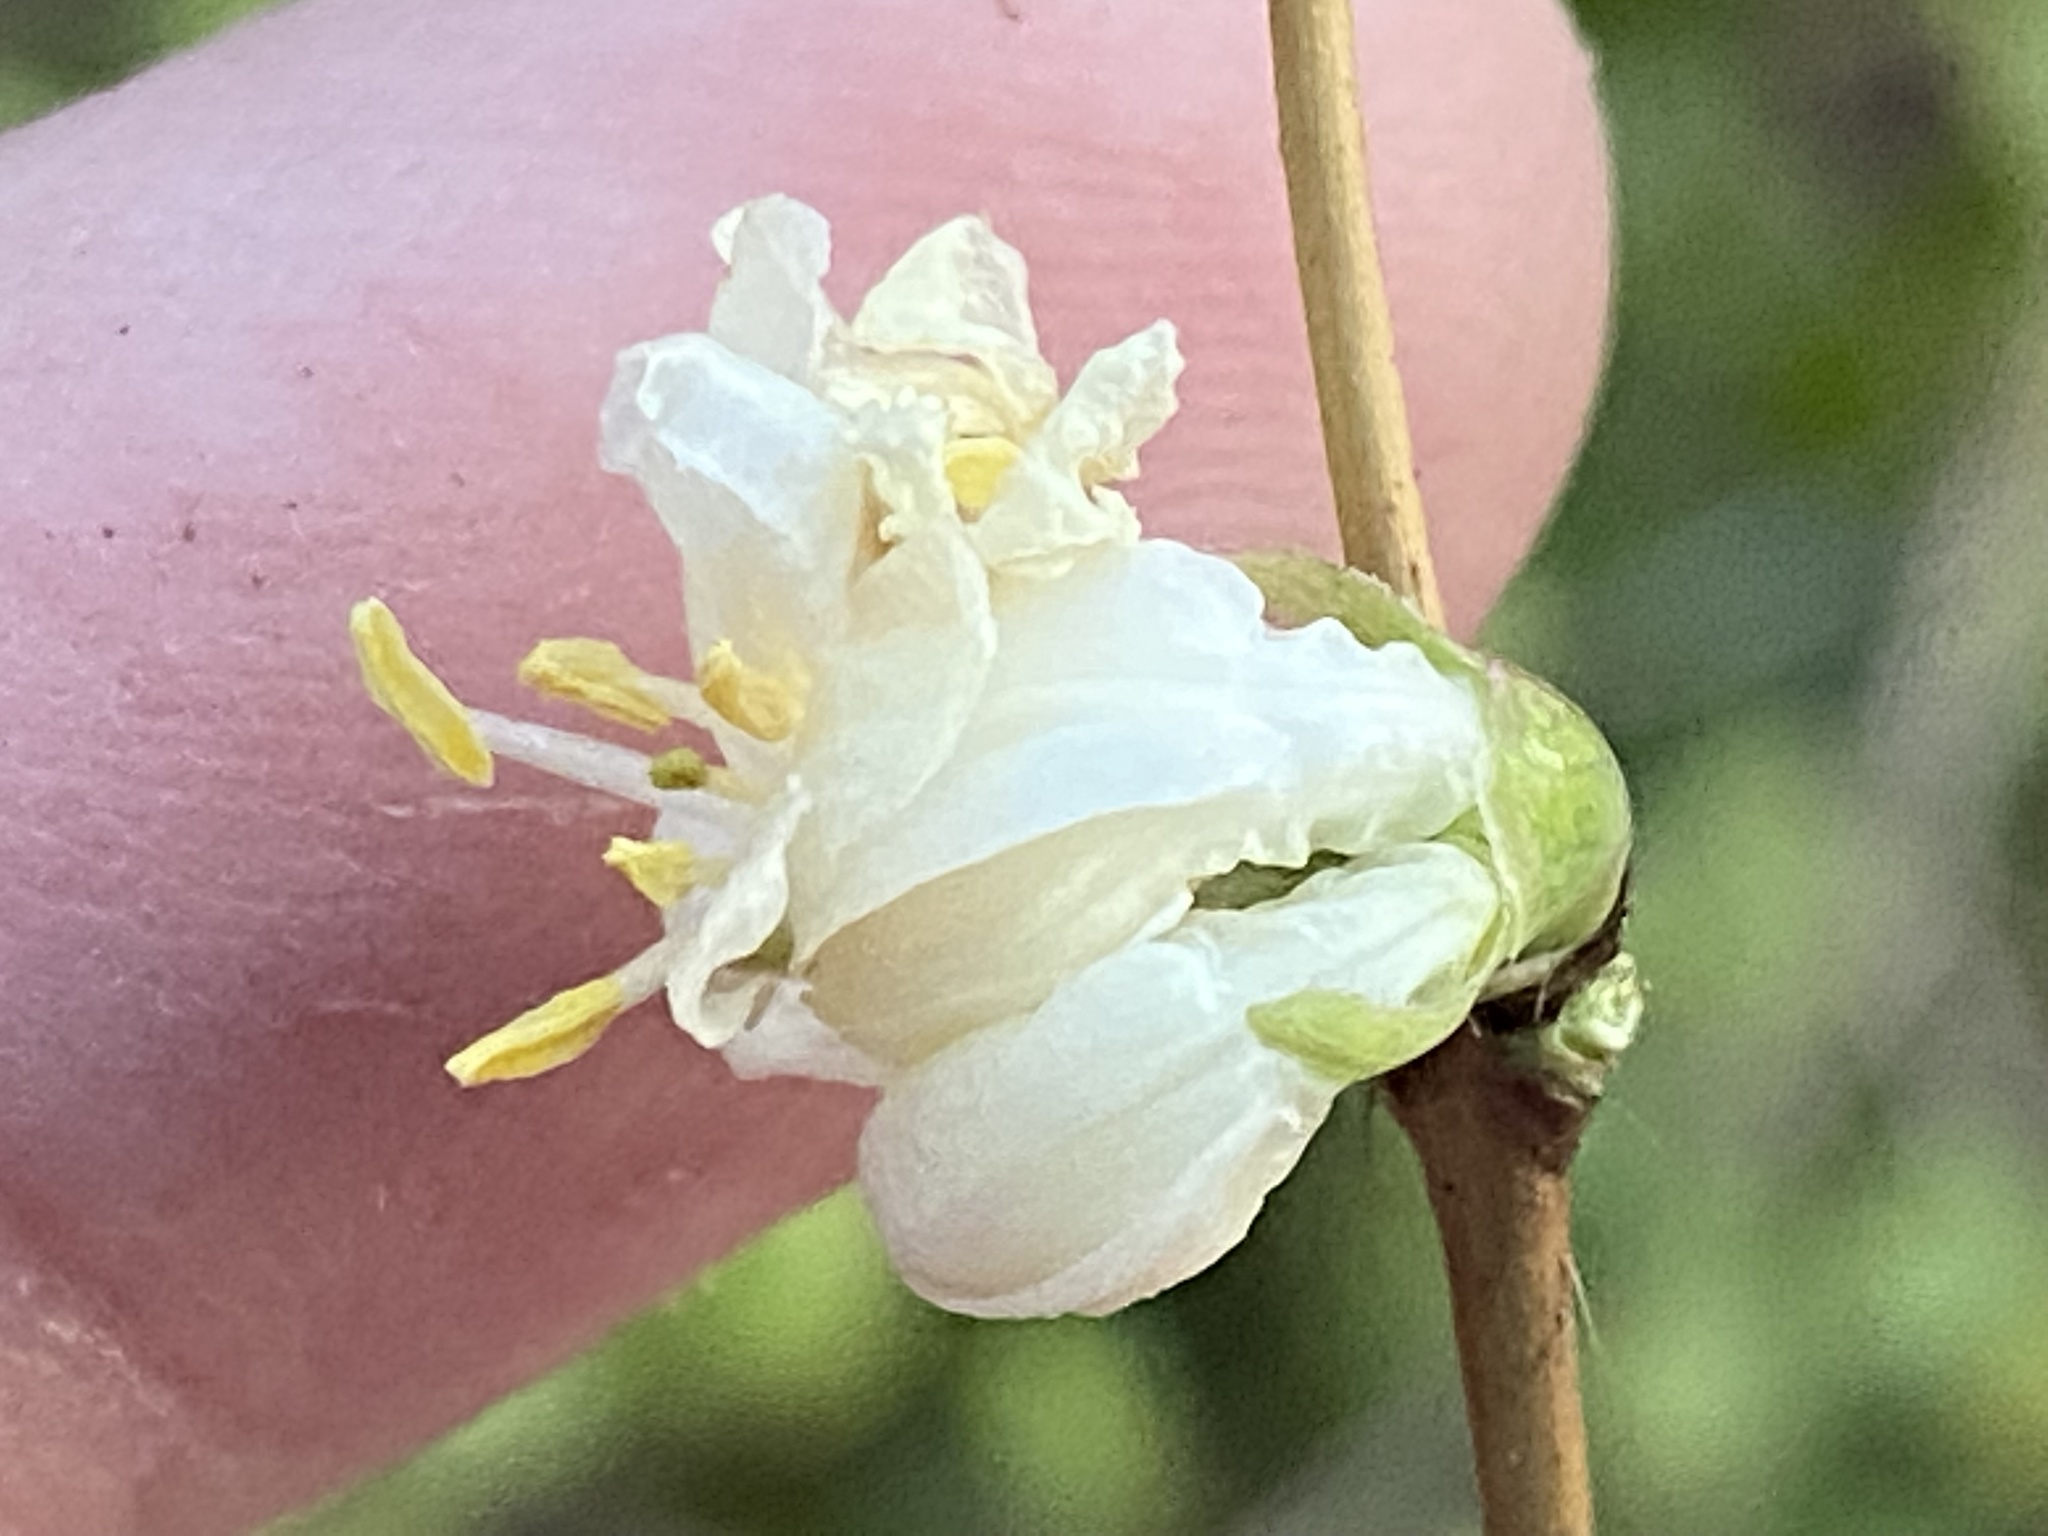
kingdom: Plantae
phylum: Tracheophyta
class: Magnoliopsida
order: Dipsacales
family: Caprifoliaceae
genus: Lonicera
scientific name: Lonicera fragrantissima
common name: Fragrant honeysuckle
